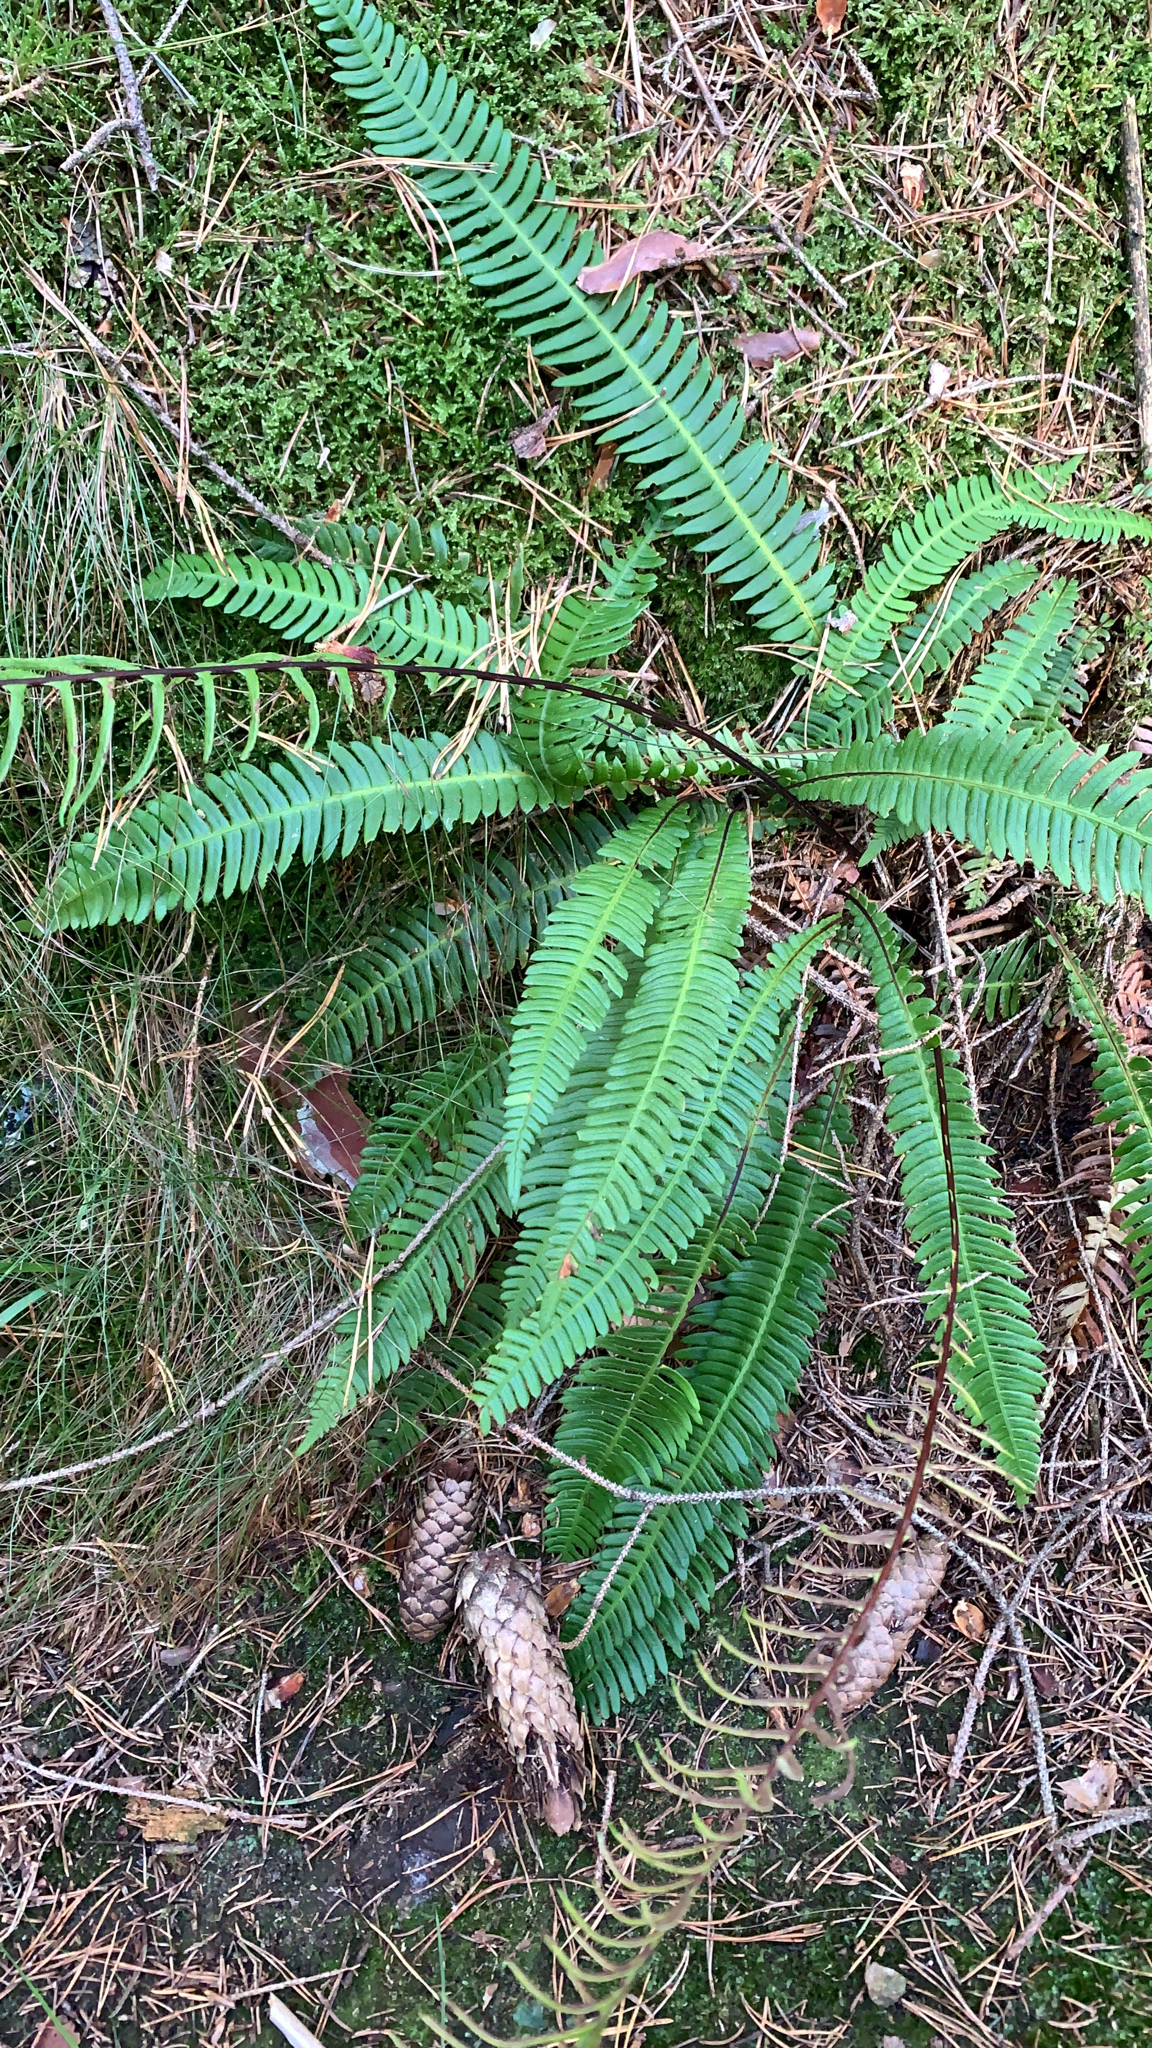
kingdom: Plantae
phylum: Tracheophyta
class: Polypodiopsida
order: Polypodiales
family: Blechnaceae
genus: Struthiopteris
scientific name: Struthiopteris spicant
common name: Deer fern
